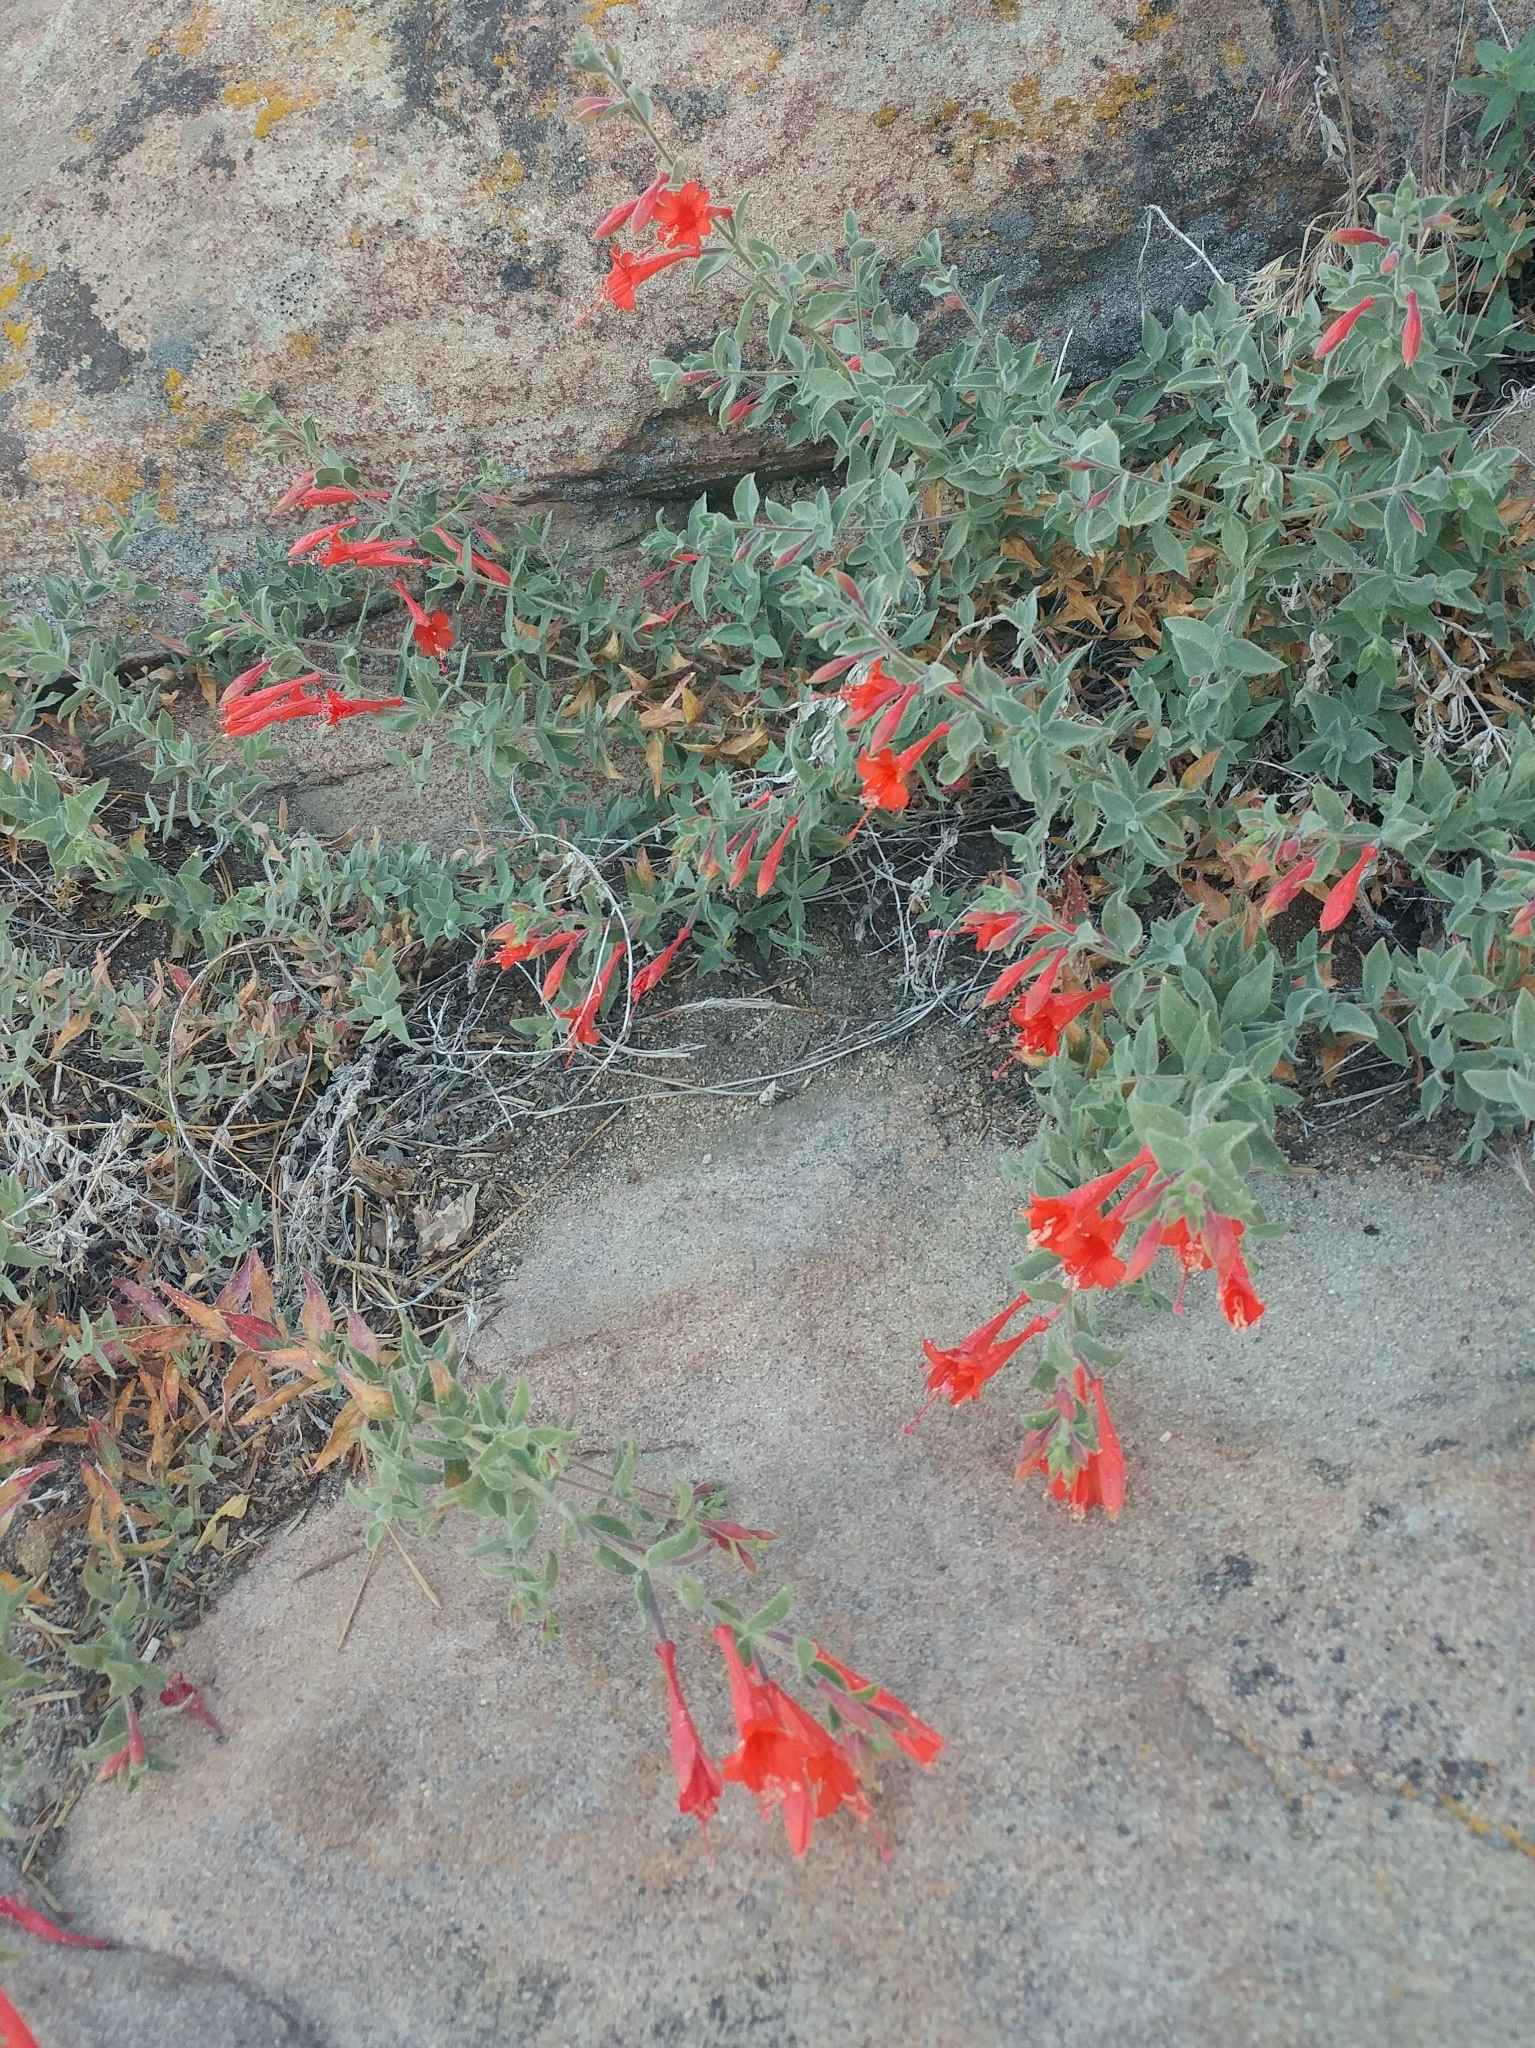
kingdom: Plantae
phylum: Tracheophyta
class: Magnoliopsida
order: Myrtales
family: Onagraceae
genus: Epilobium
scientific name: Epilobium canum
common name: California-fuchsia
